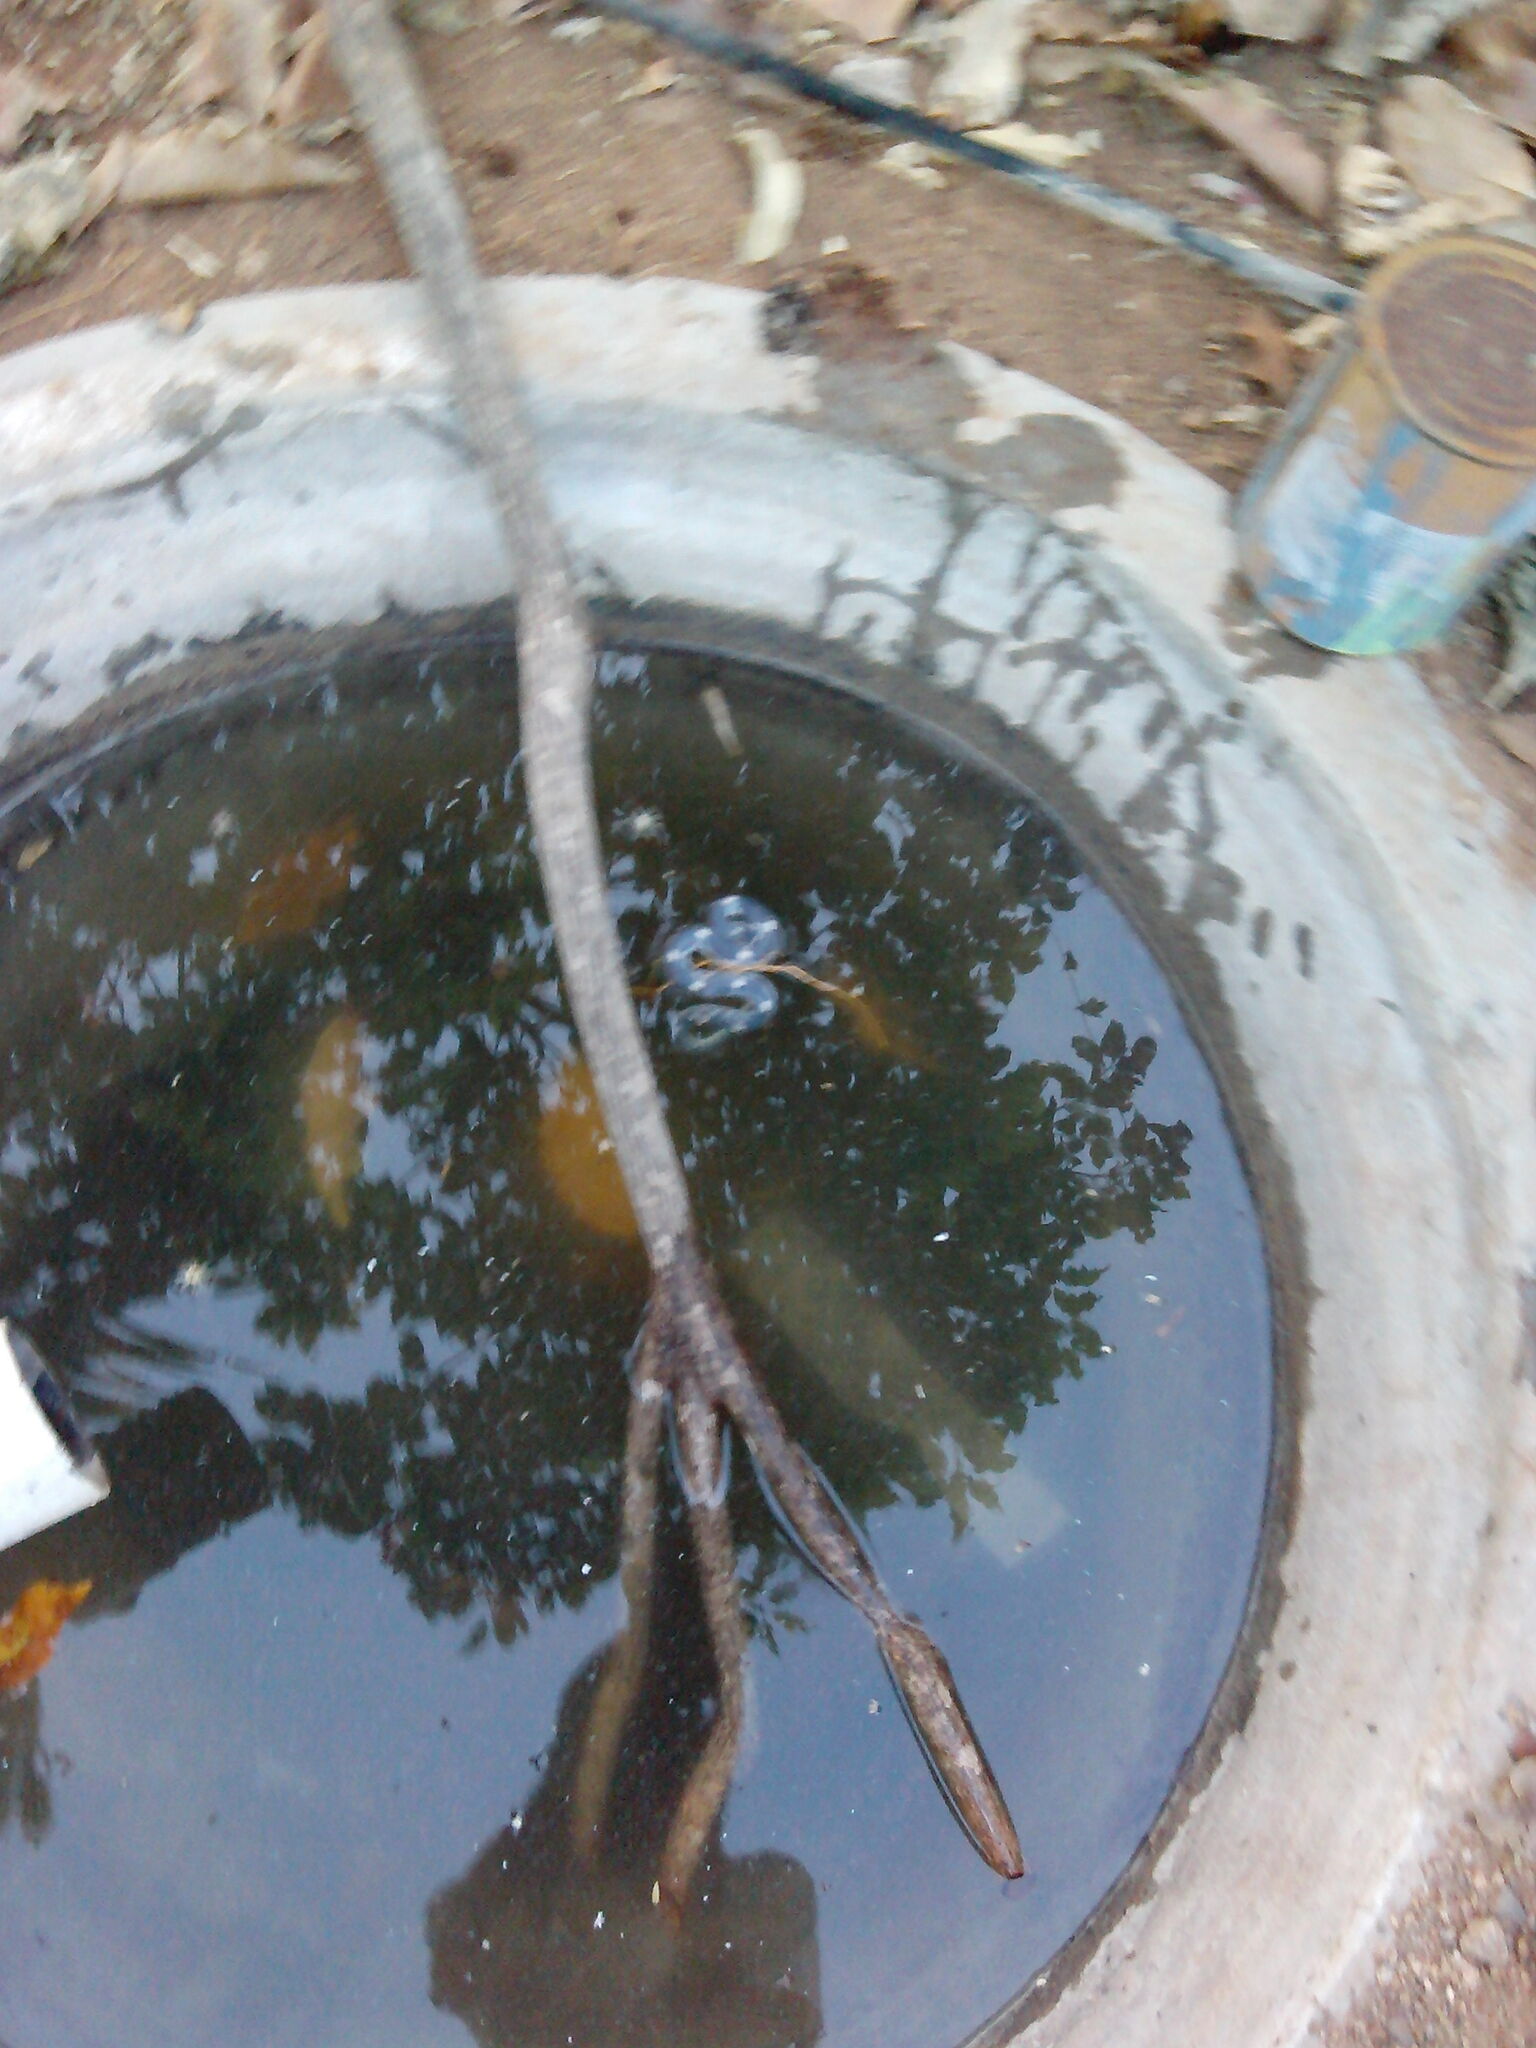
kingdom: Animalia
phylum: Chordata
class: Squamata
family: Colubridae
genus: Lycodon
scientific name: Lycodon striatus
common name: Barred wolf snake
